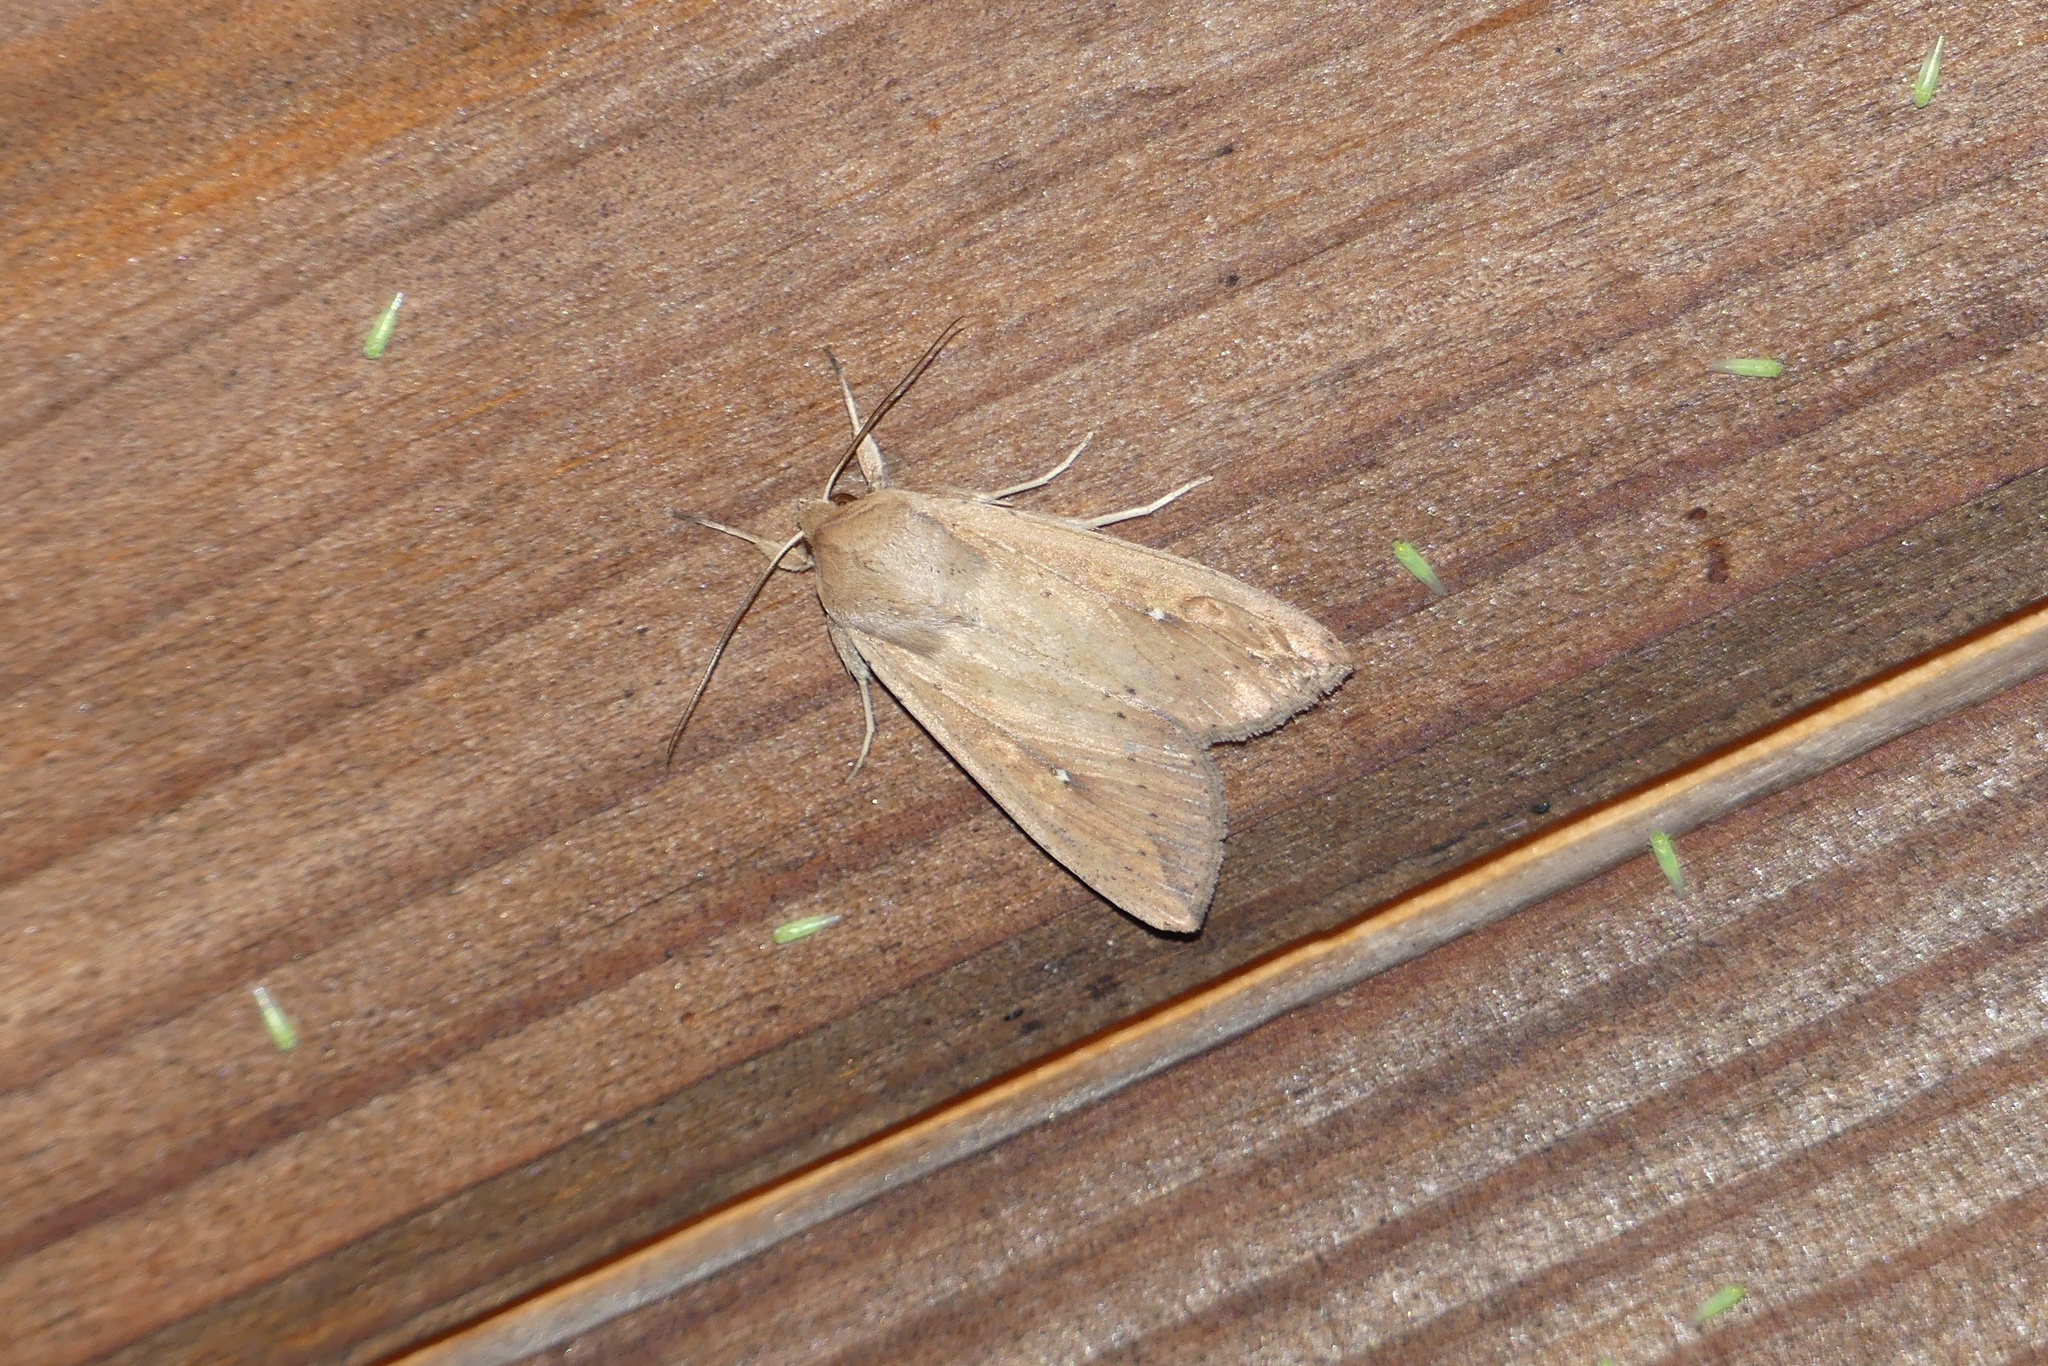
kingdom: Animalia
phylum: Arthropoda
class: Insecta
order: Lepidoptera
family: Noctuidae
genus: Mythimna
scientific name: Mythimna unipuncta
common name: White-speck
